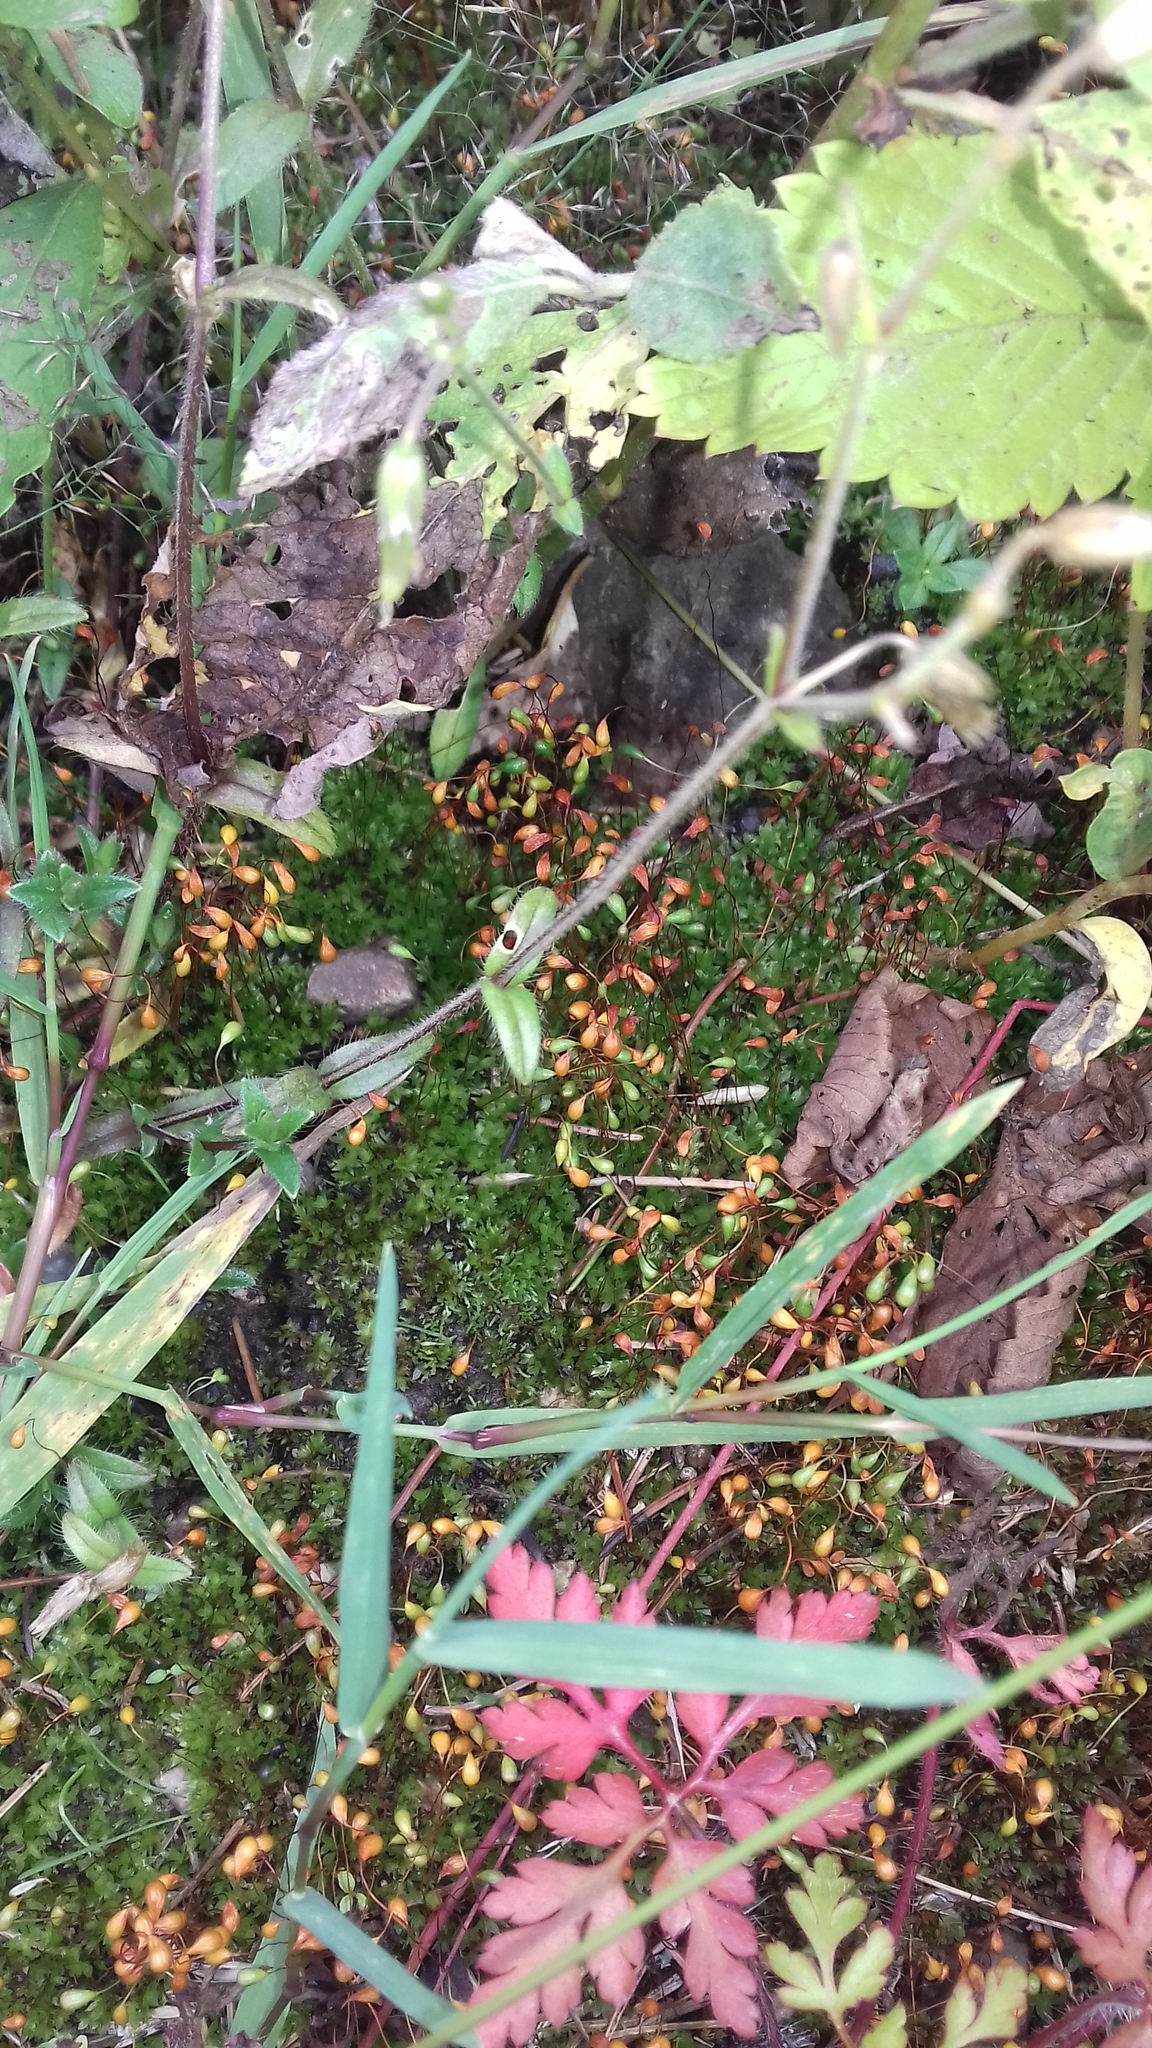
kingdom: Plantae
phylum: Bryophyta
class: Bryopsida
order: Funariales
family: Funariaceae
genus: Funaria
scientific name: Funaria hygrometrica
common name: Common cord moss
